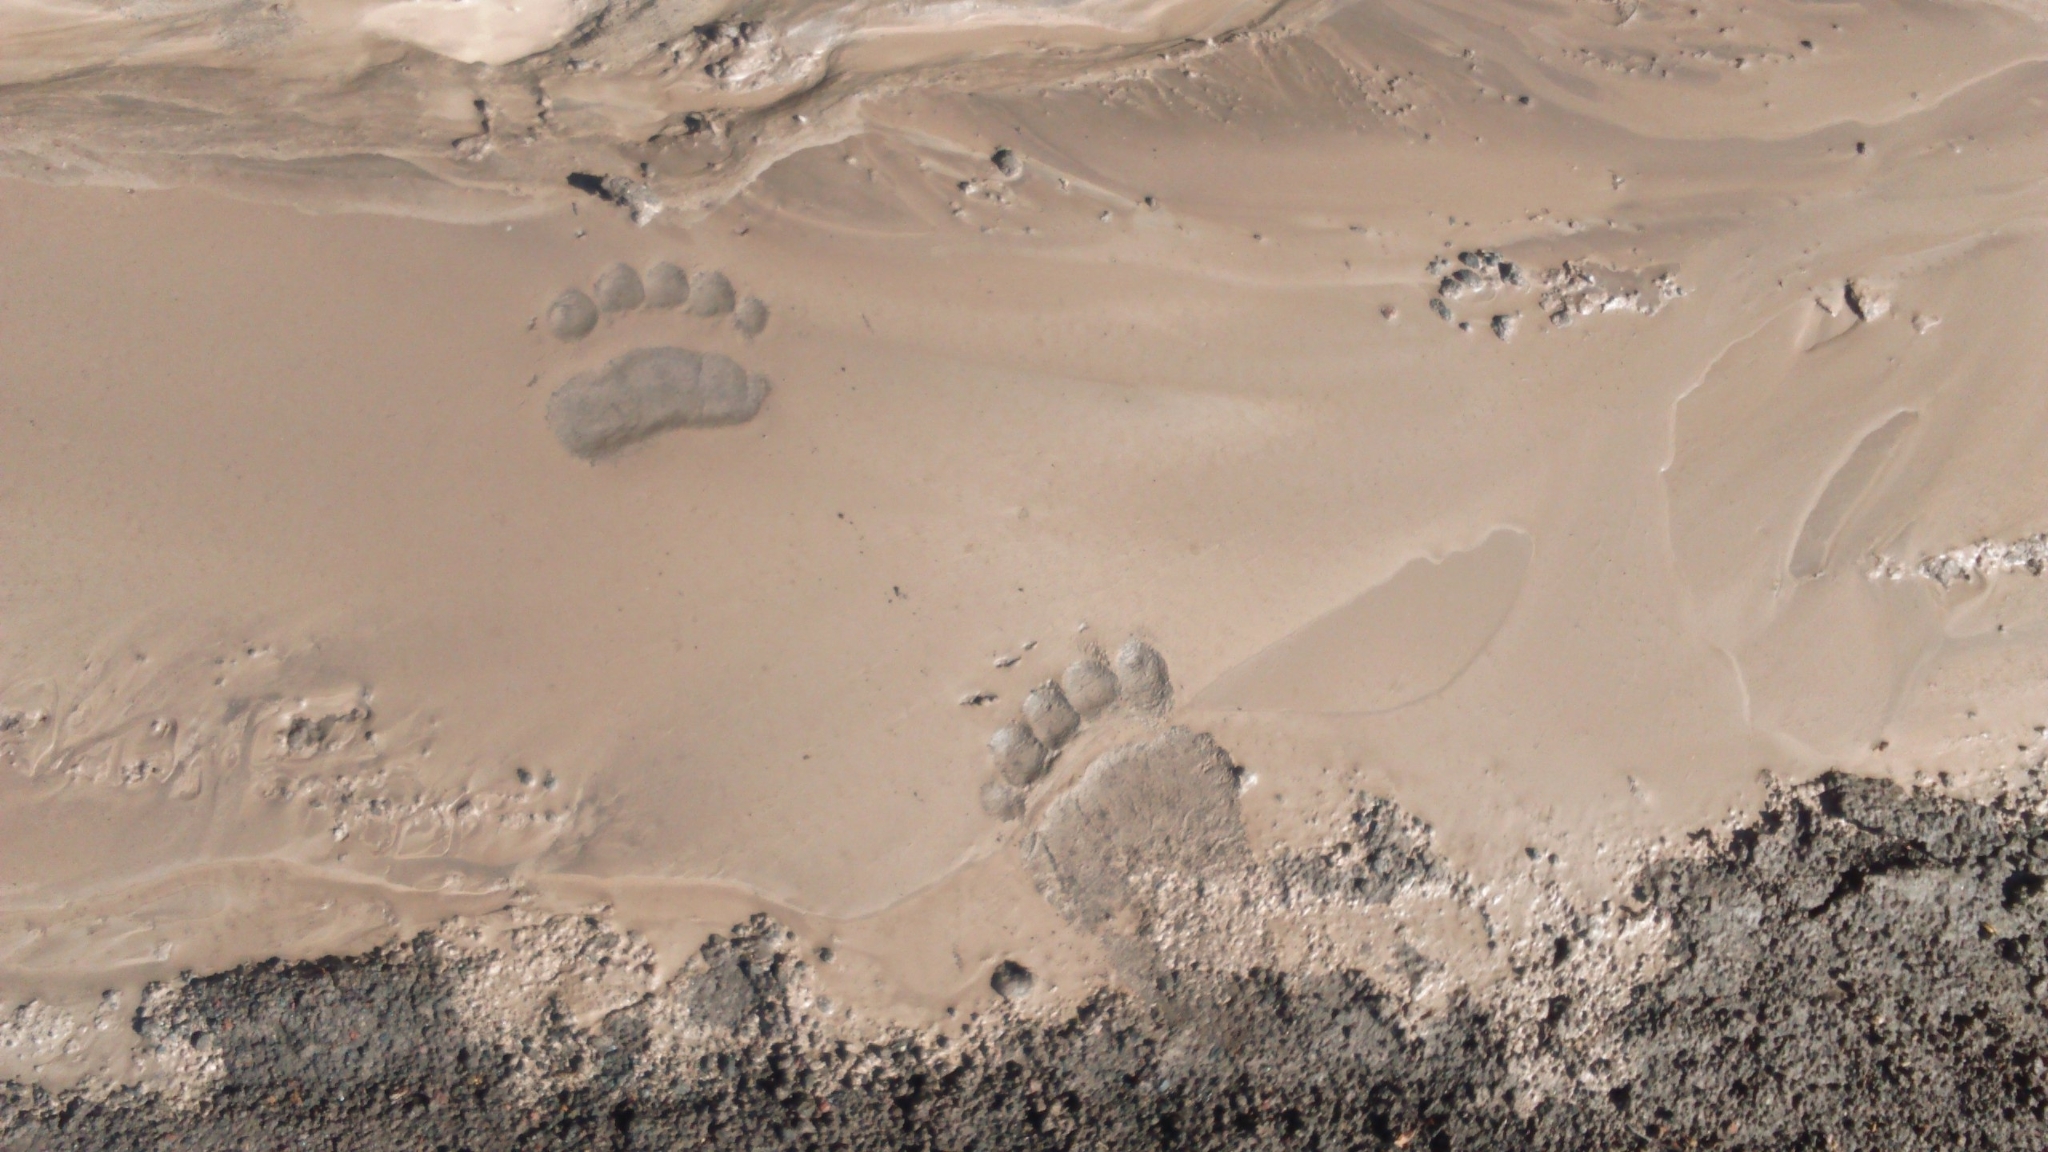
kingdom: Animalia
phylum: Chordata
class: Mammalia
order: Carnivora
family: Ursidae
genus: Ursus
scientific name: Ursus arctos
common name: Brown bear
